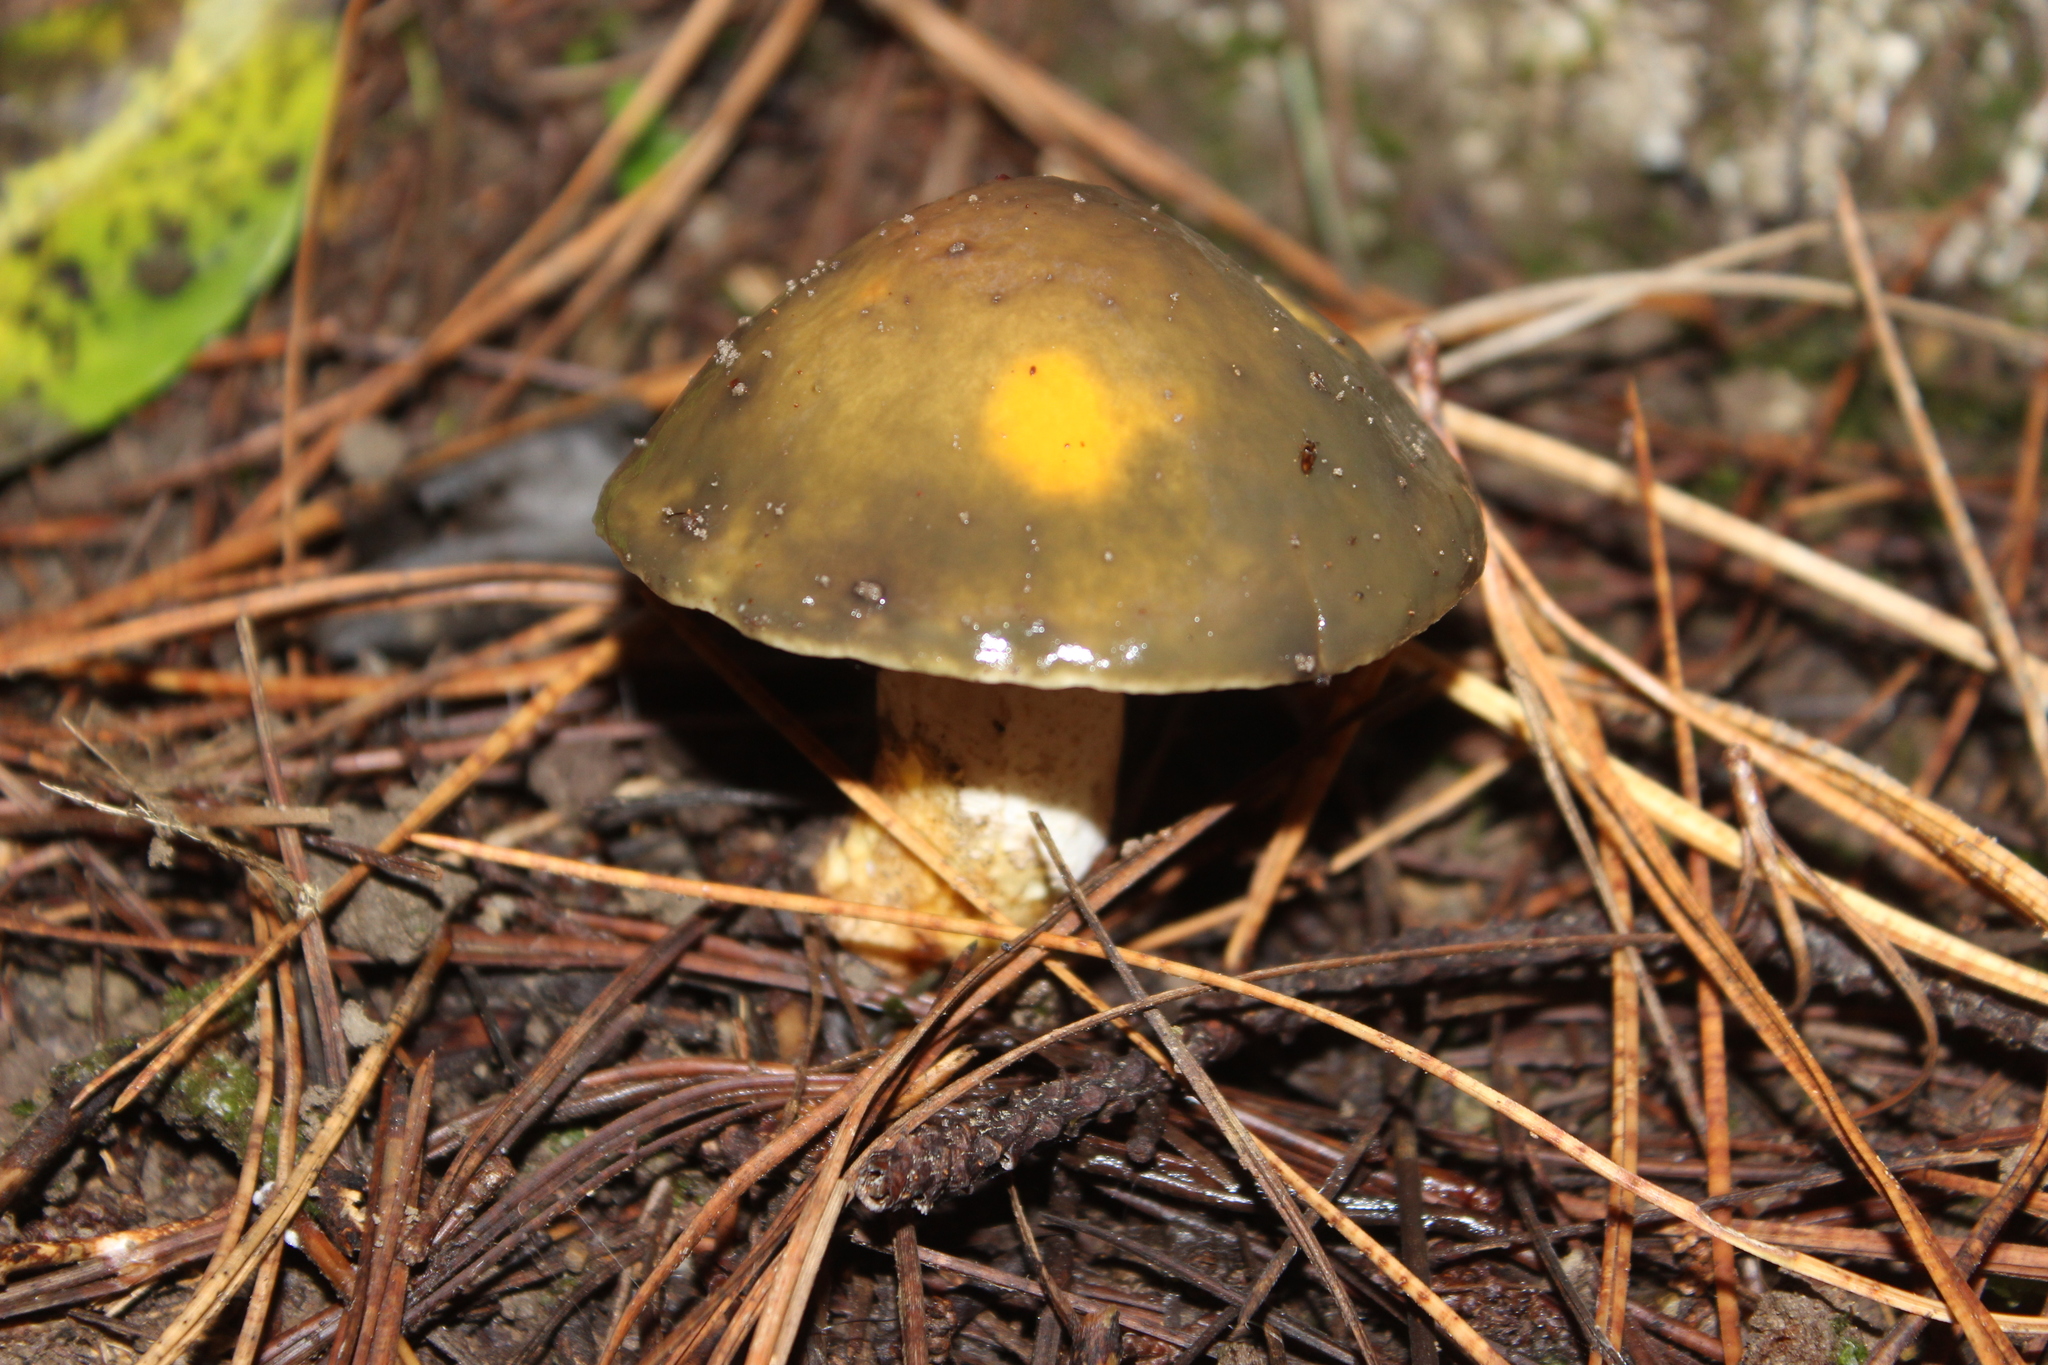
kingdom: Fungi
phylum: Basidiomycota
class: Agaricomycetes
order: Boletales
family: Suillaceae
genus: Suillus
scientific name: Suillus pungens
